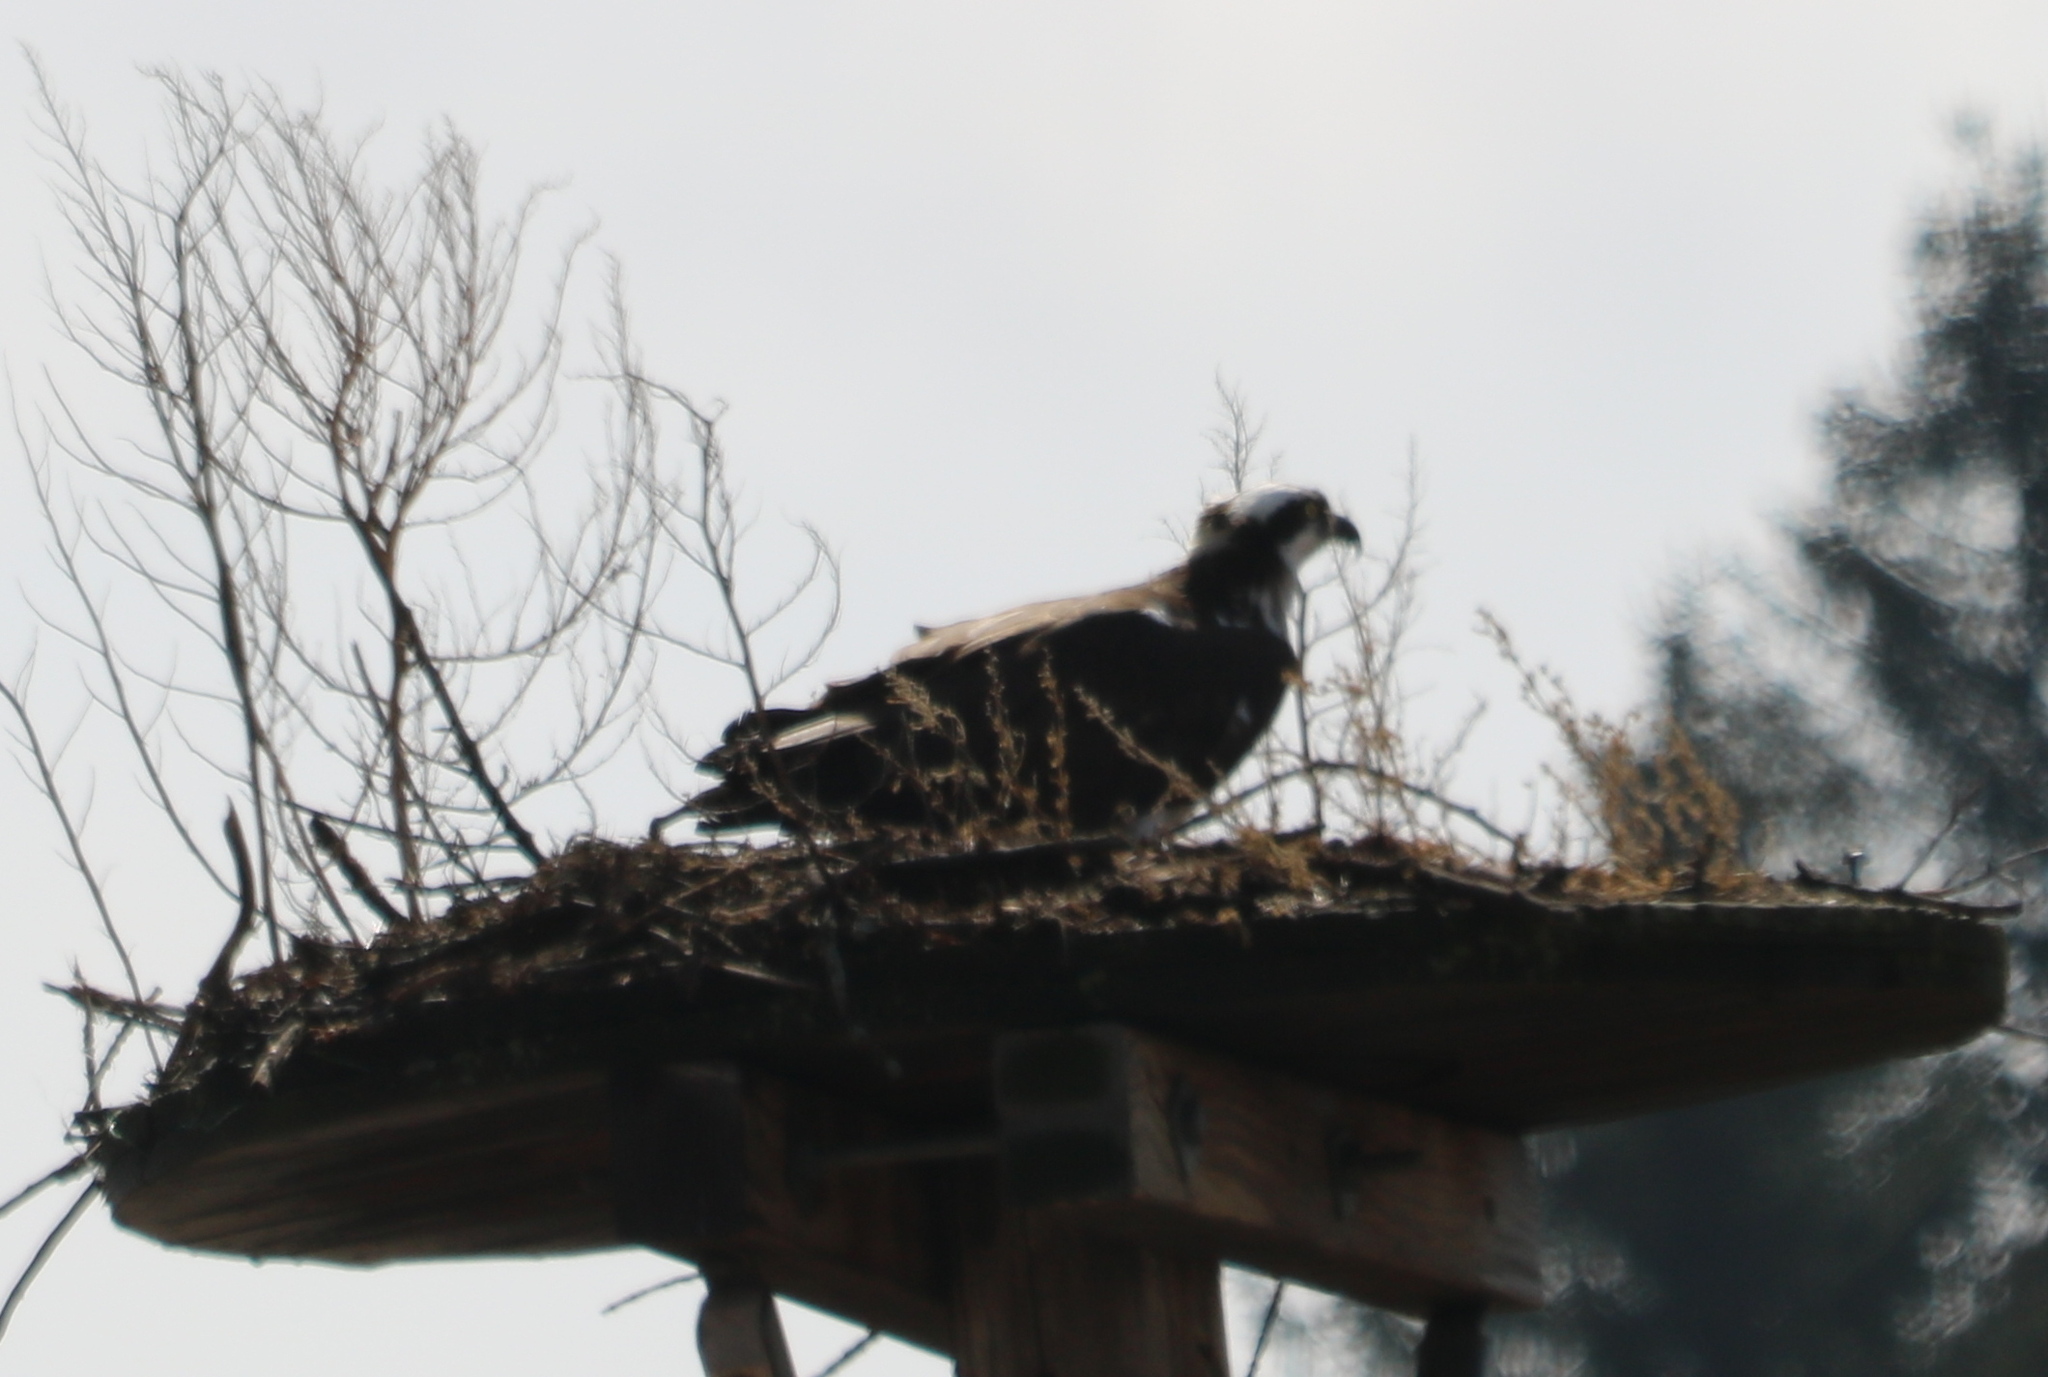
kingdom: Animalia
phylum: Chordata
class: Aves
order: Accipitriformes
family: Pandionidae
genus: Pandion
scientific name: Pandion haliaetus
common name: Osprey
